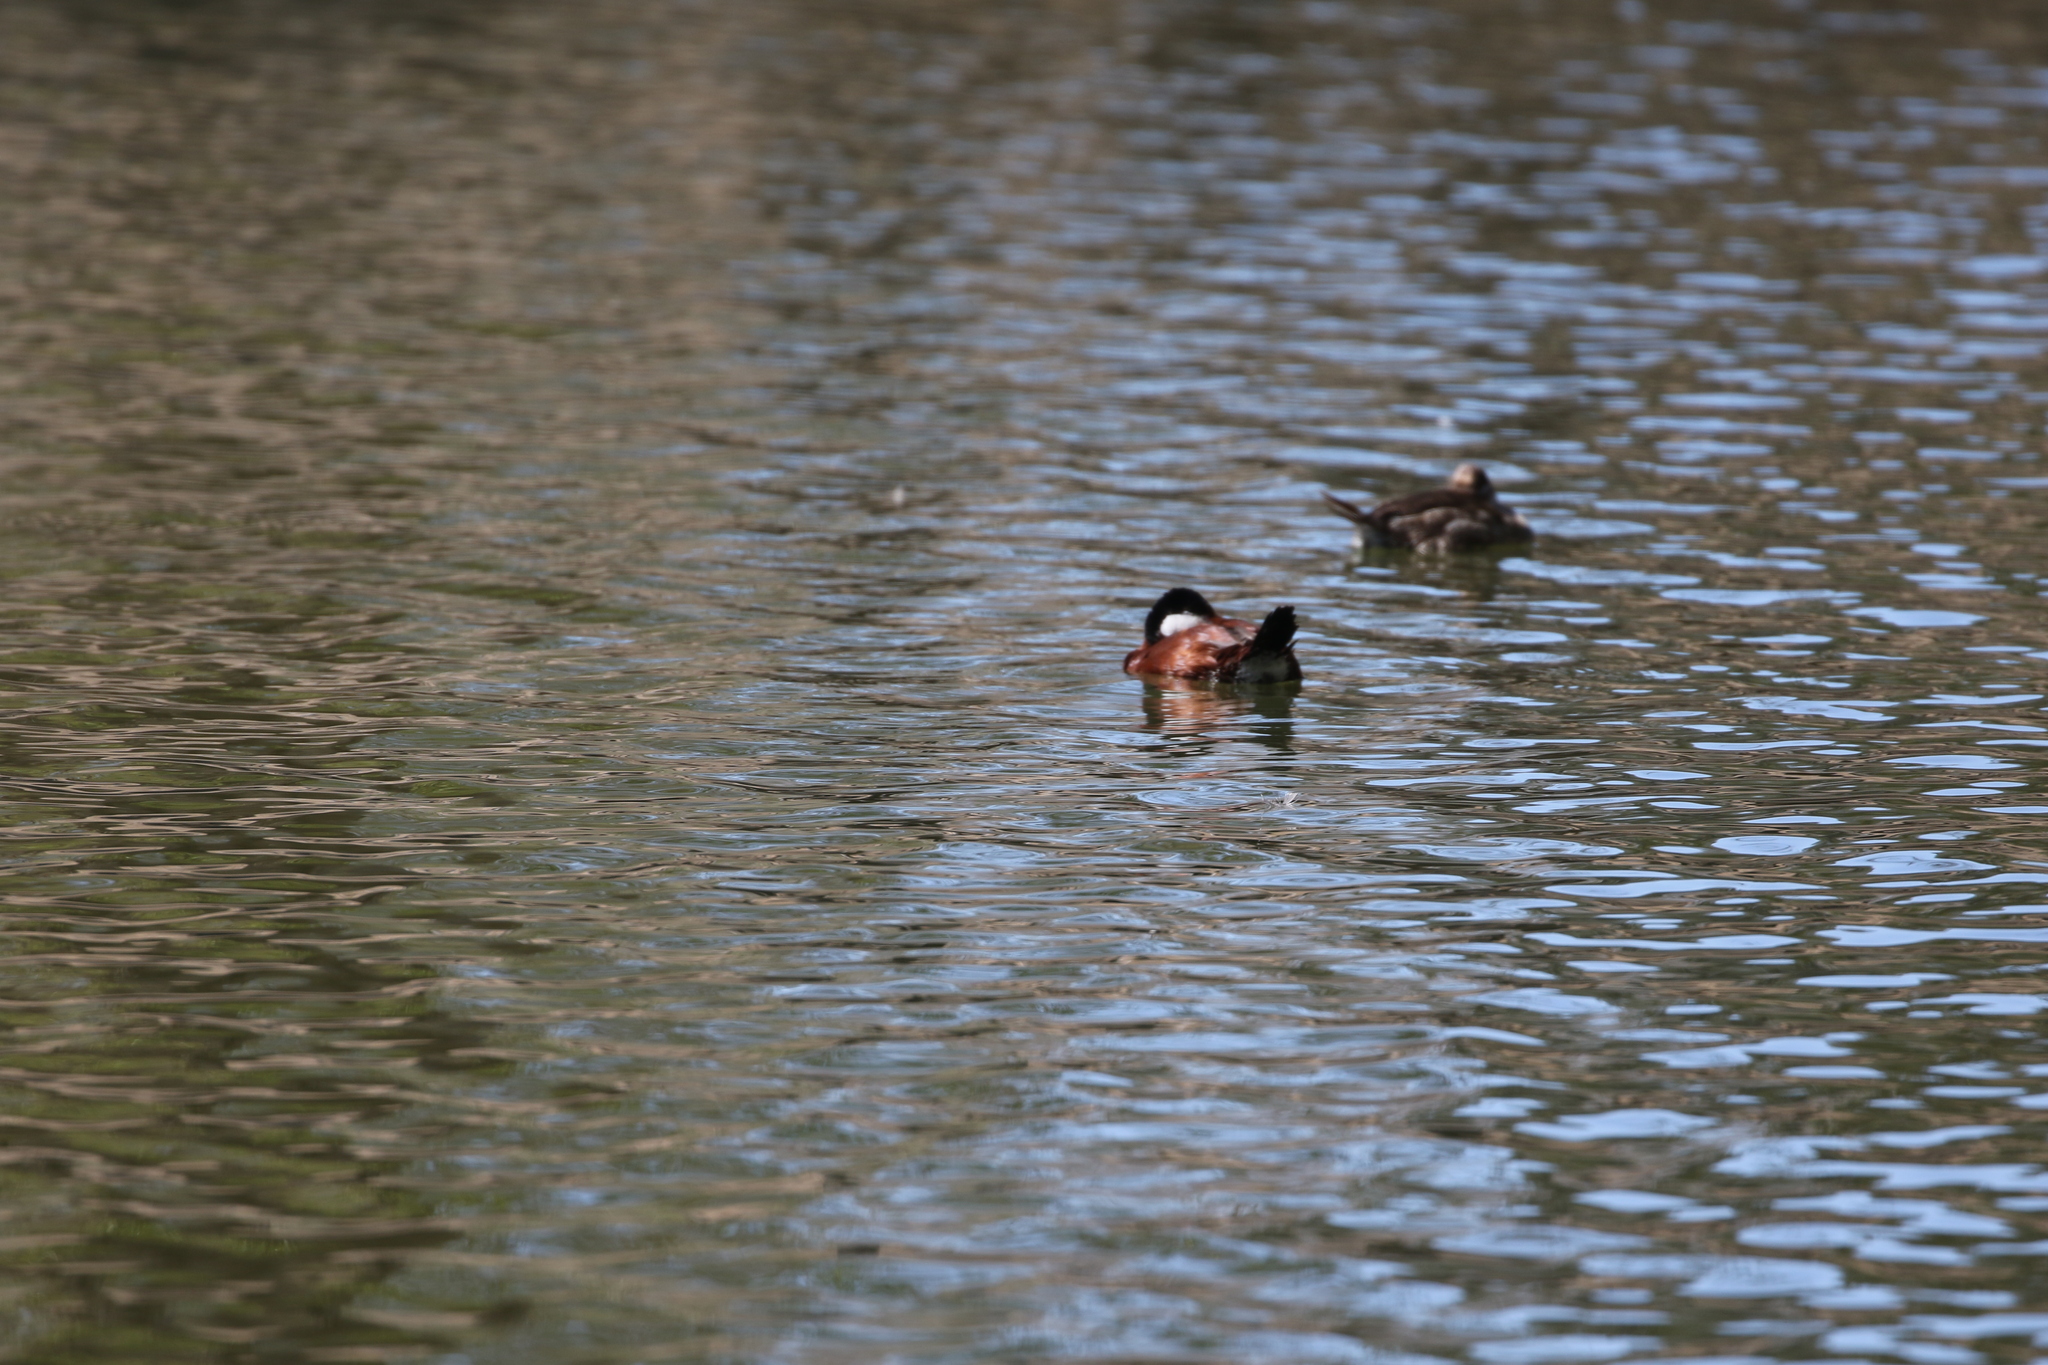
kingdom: Animalia
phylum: Chordata
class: Aves
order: Anseriformes
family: Anatidae
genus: Oxyura
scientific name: Oxyura jamaicensis
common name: Ruddy duck
